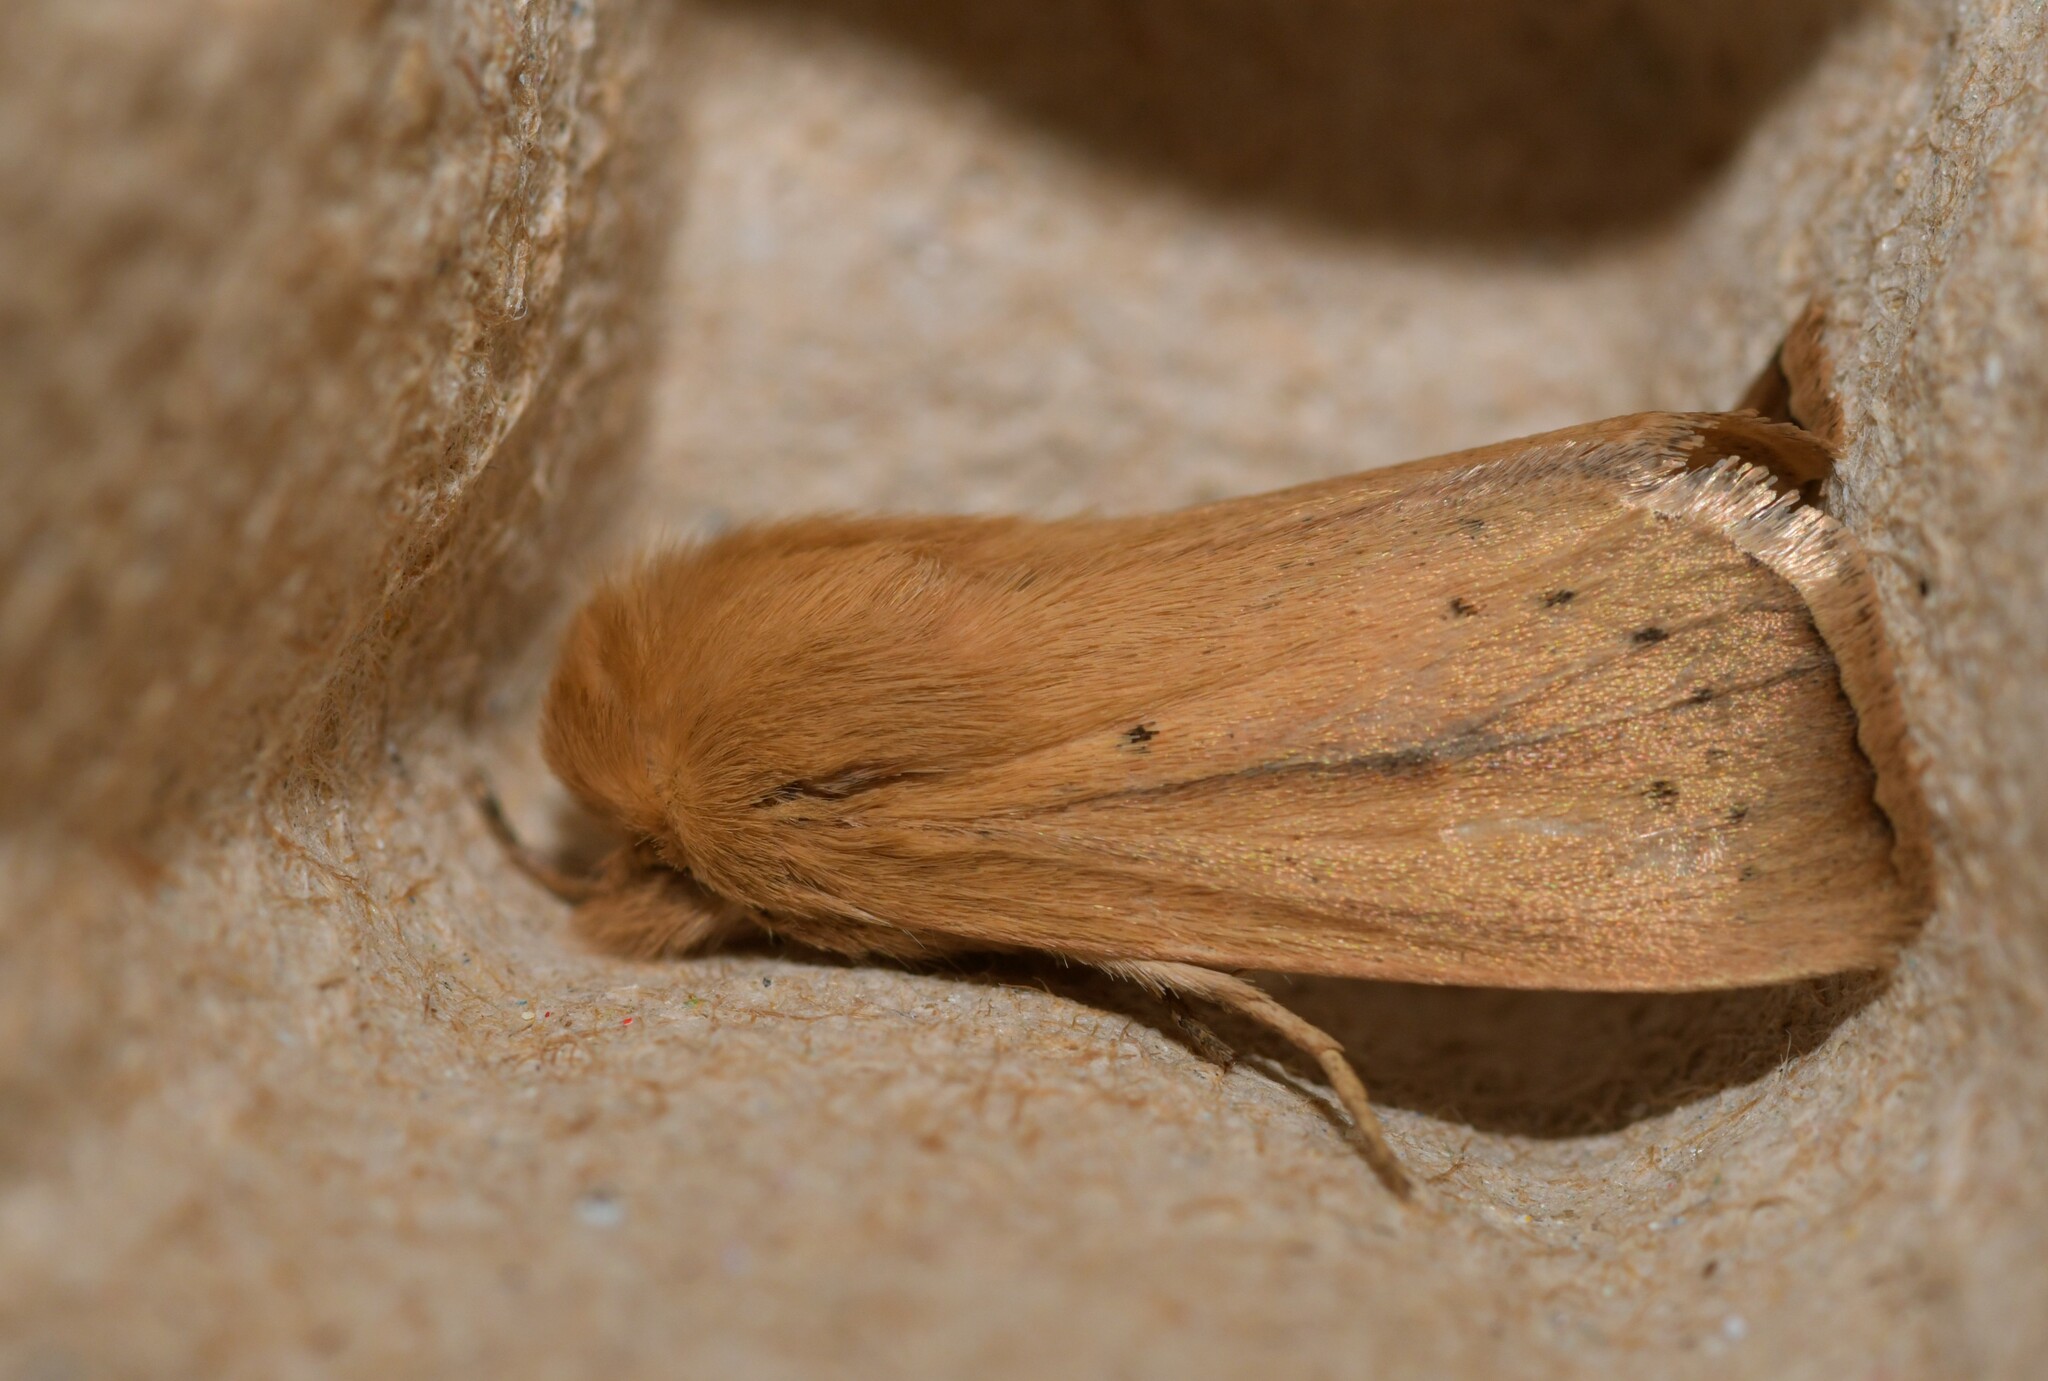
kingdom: Animalia
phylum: Arthropoda
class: Insecta
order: Lepidoptera
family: Noctuidae
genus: Sesamia
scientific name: Sesamia nonagrioides
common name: Pink stem borer
